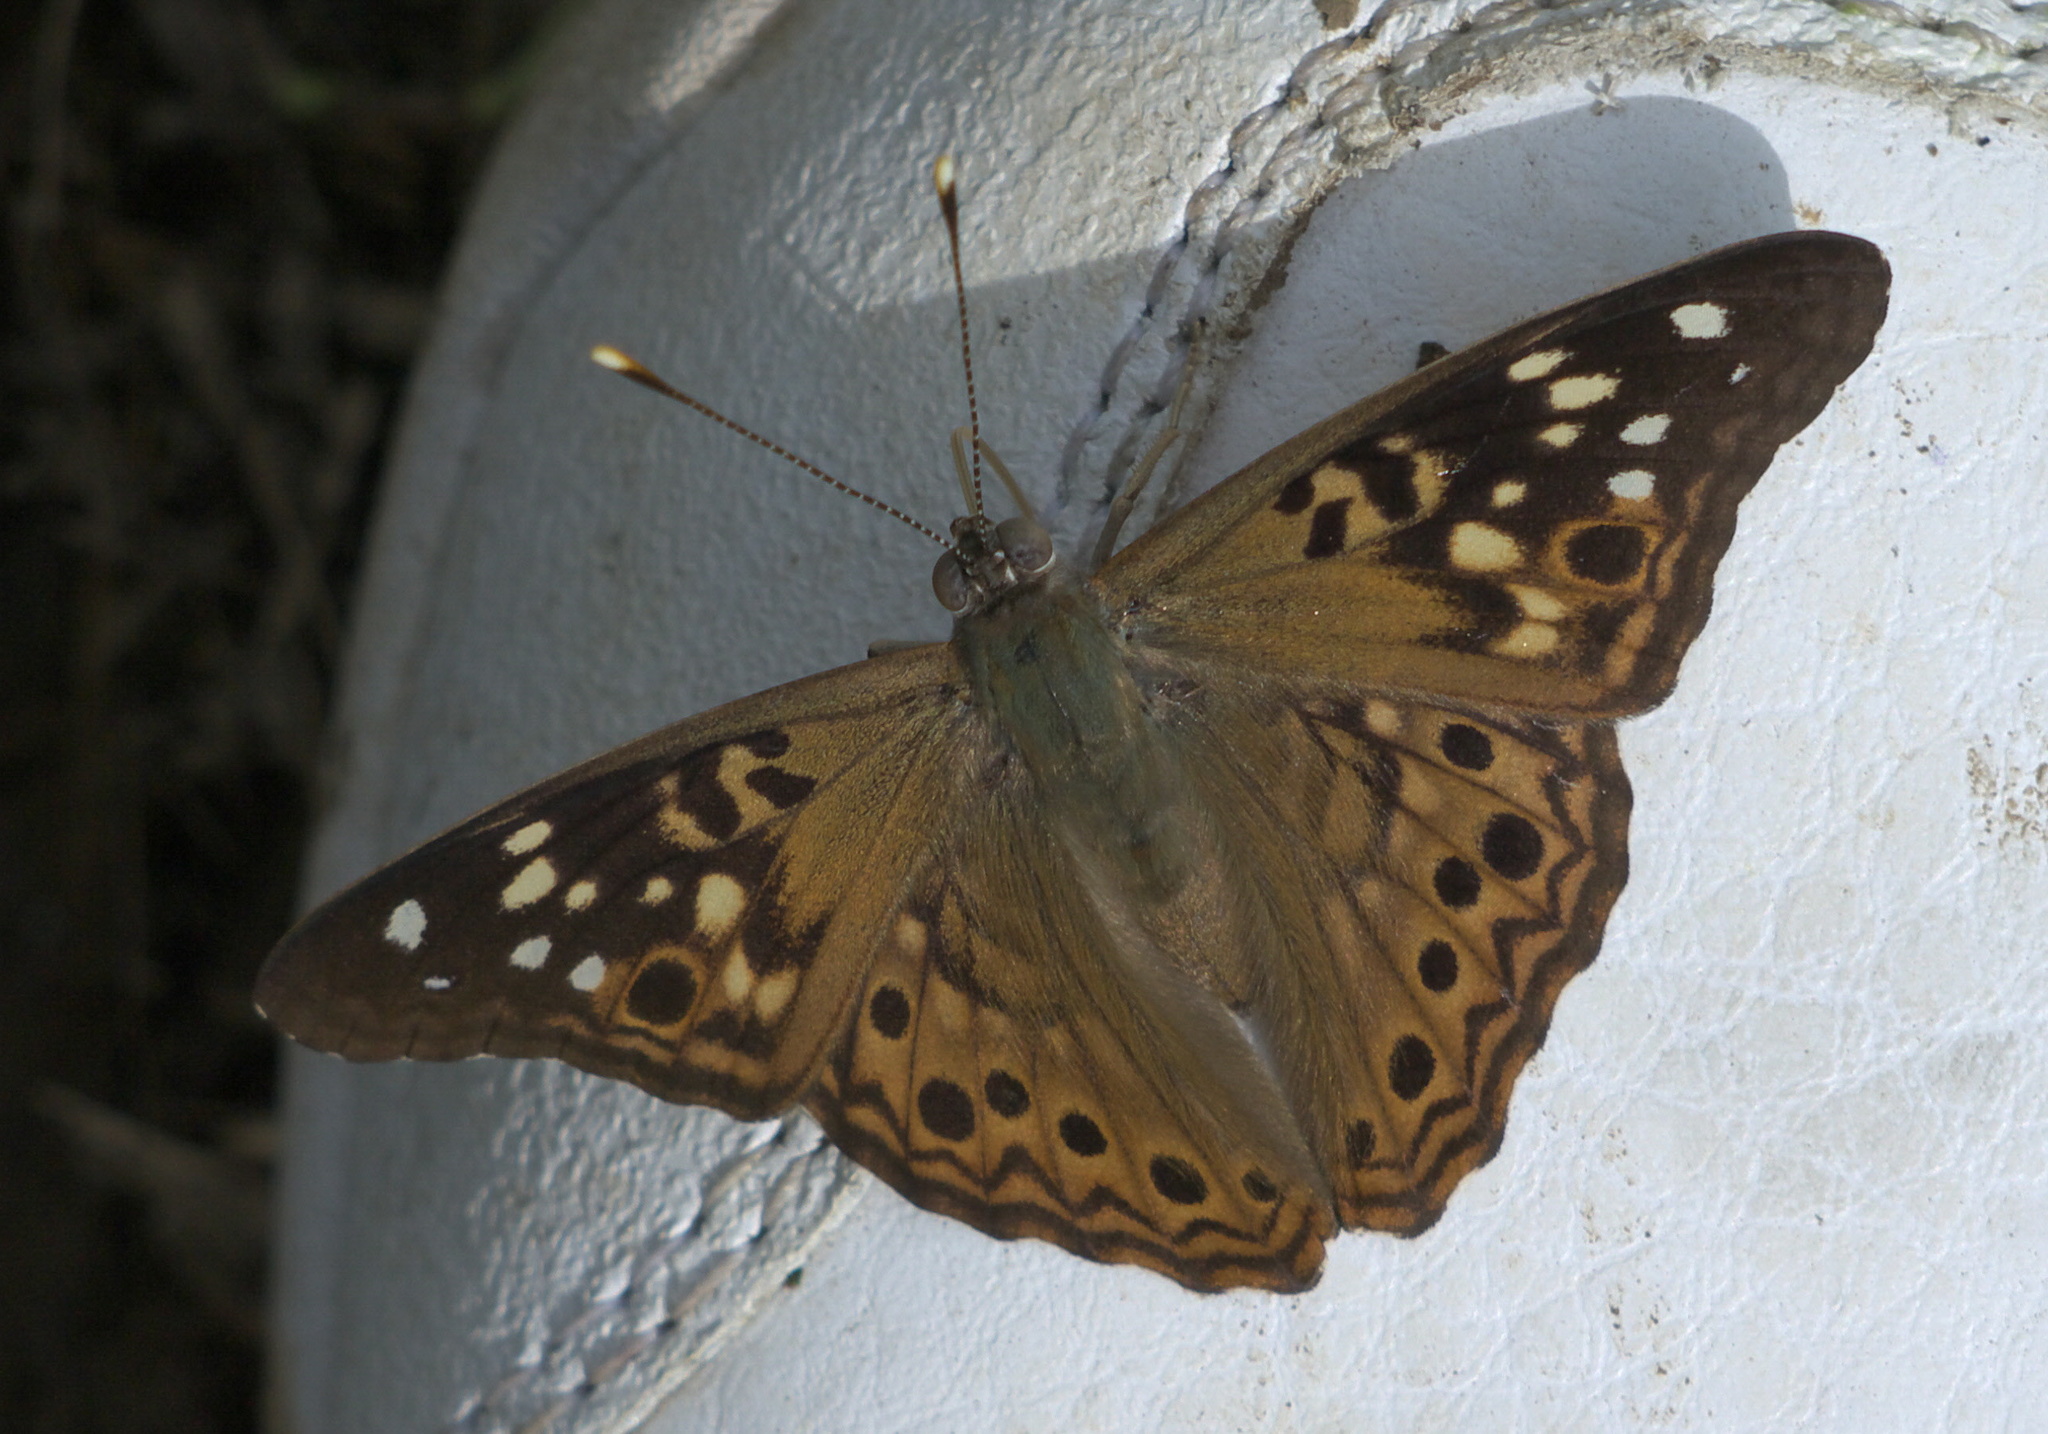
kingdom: Animalia
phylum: Arthropoda
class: Insecta
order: Lepidoptera
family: Nymphalidae
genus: Asterocampa
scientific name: Asterocampa celtis
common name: Hackberry emperor
